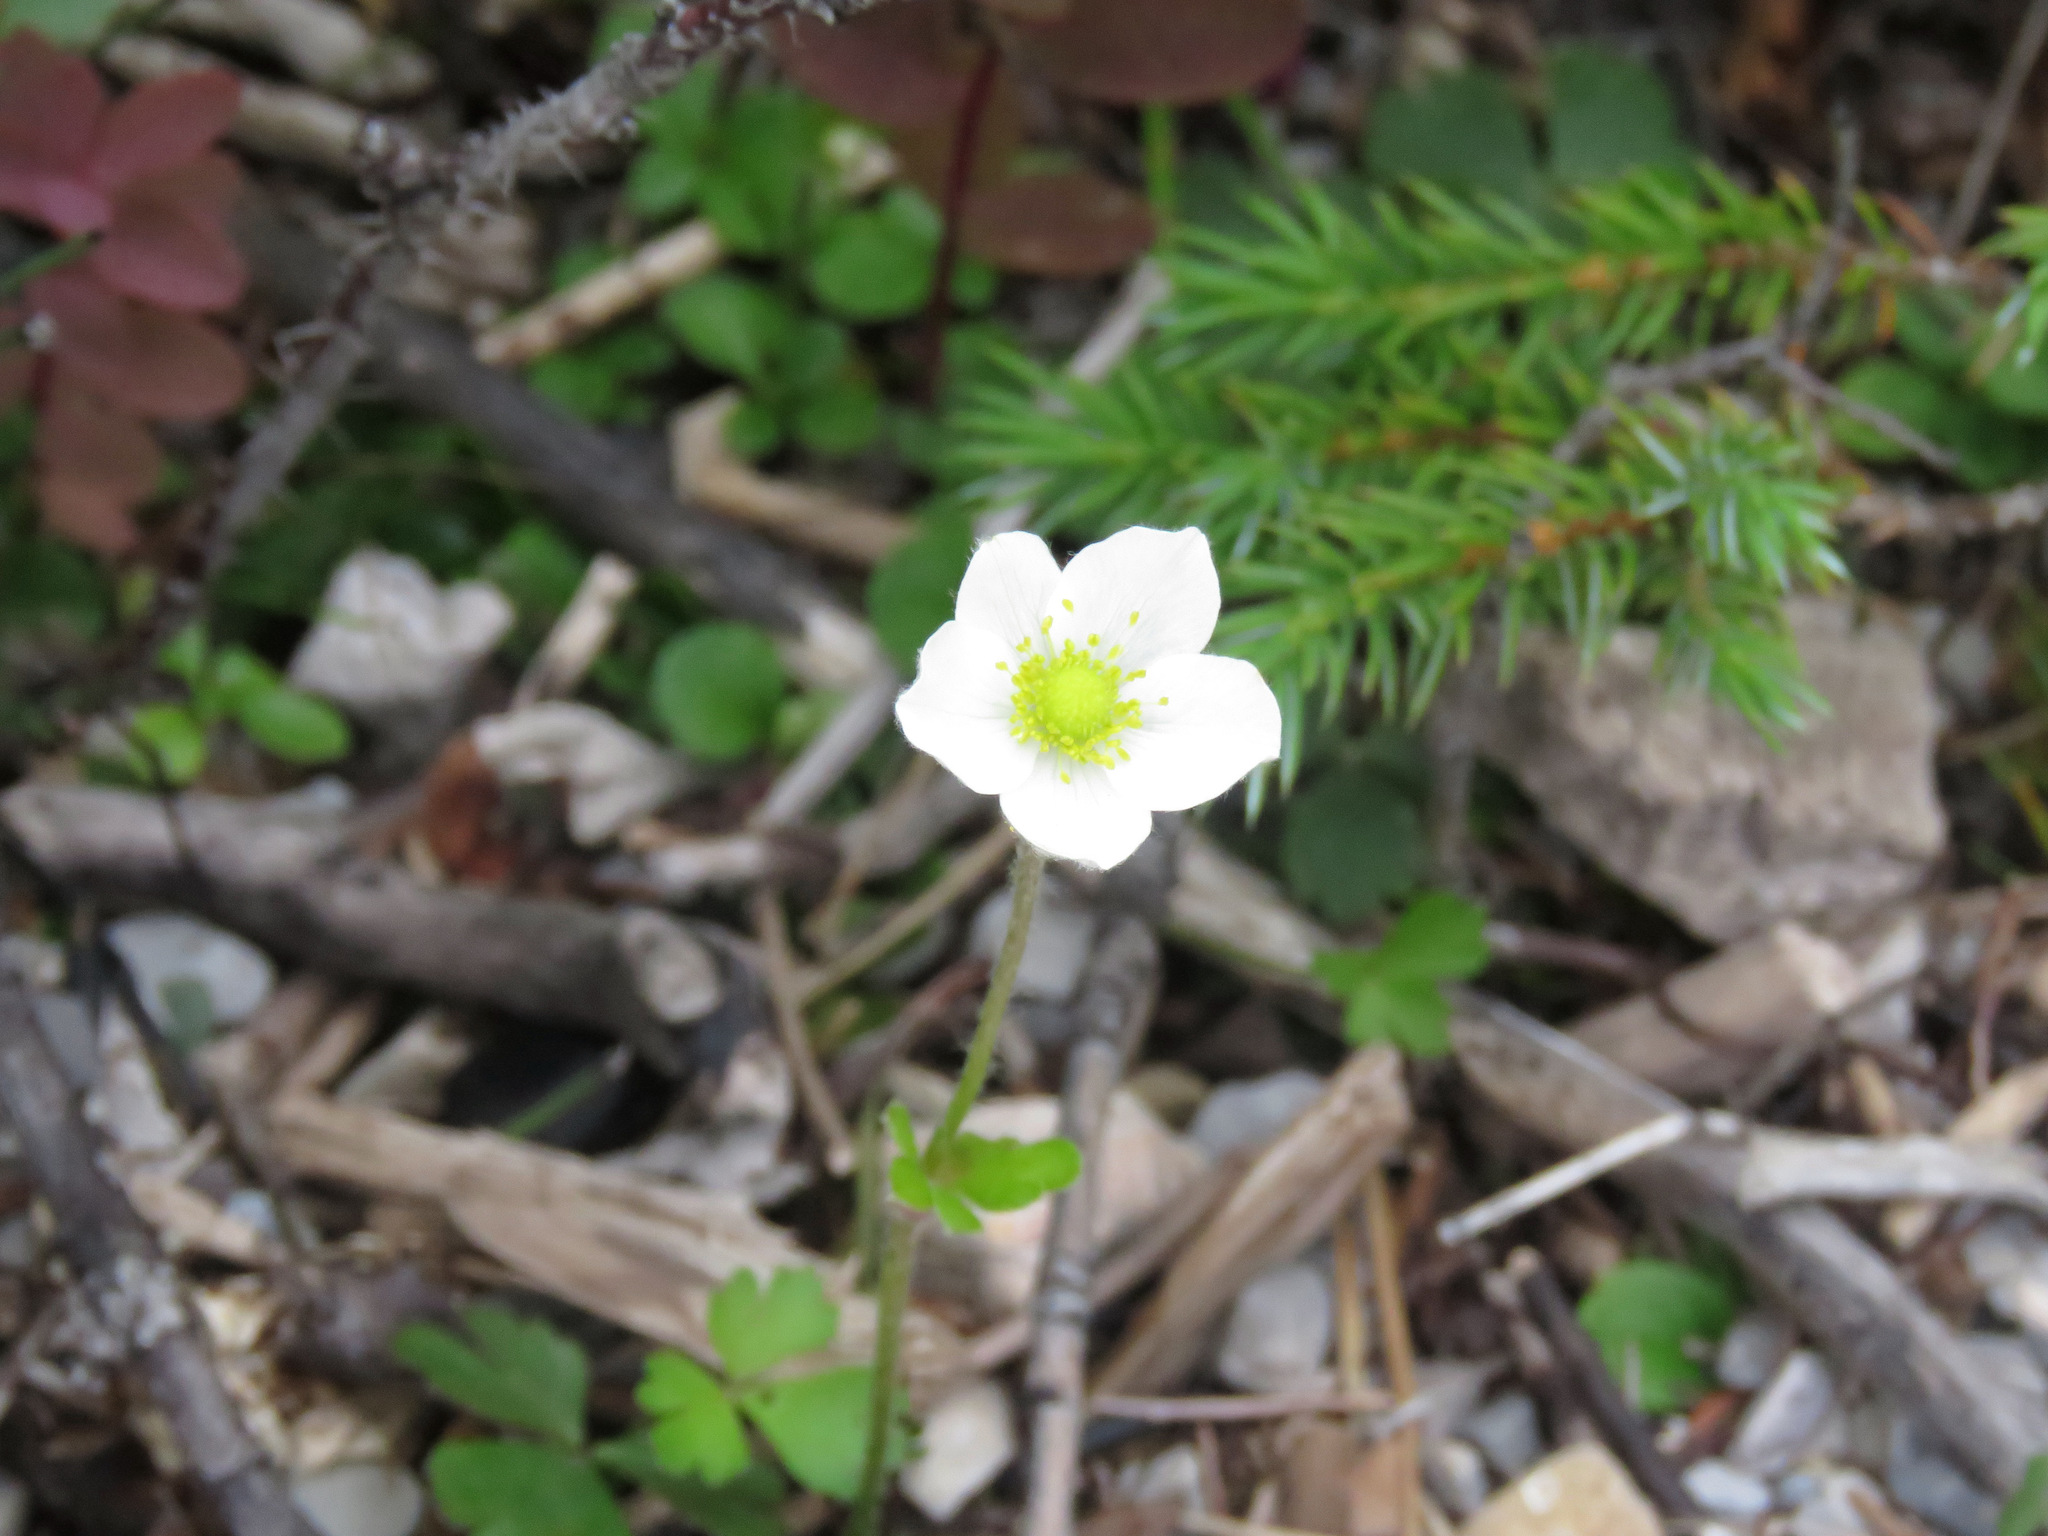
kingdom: Plantae
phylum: Tracheophyta
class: Magnoliopsida
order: Ranunculales
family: Ranunculaceae
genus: Anemone
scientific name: Anemone parviflora
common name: Northern anemone
